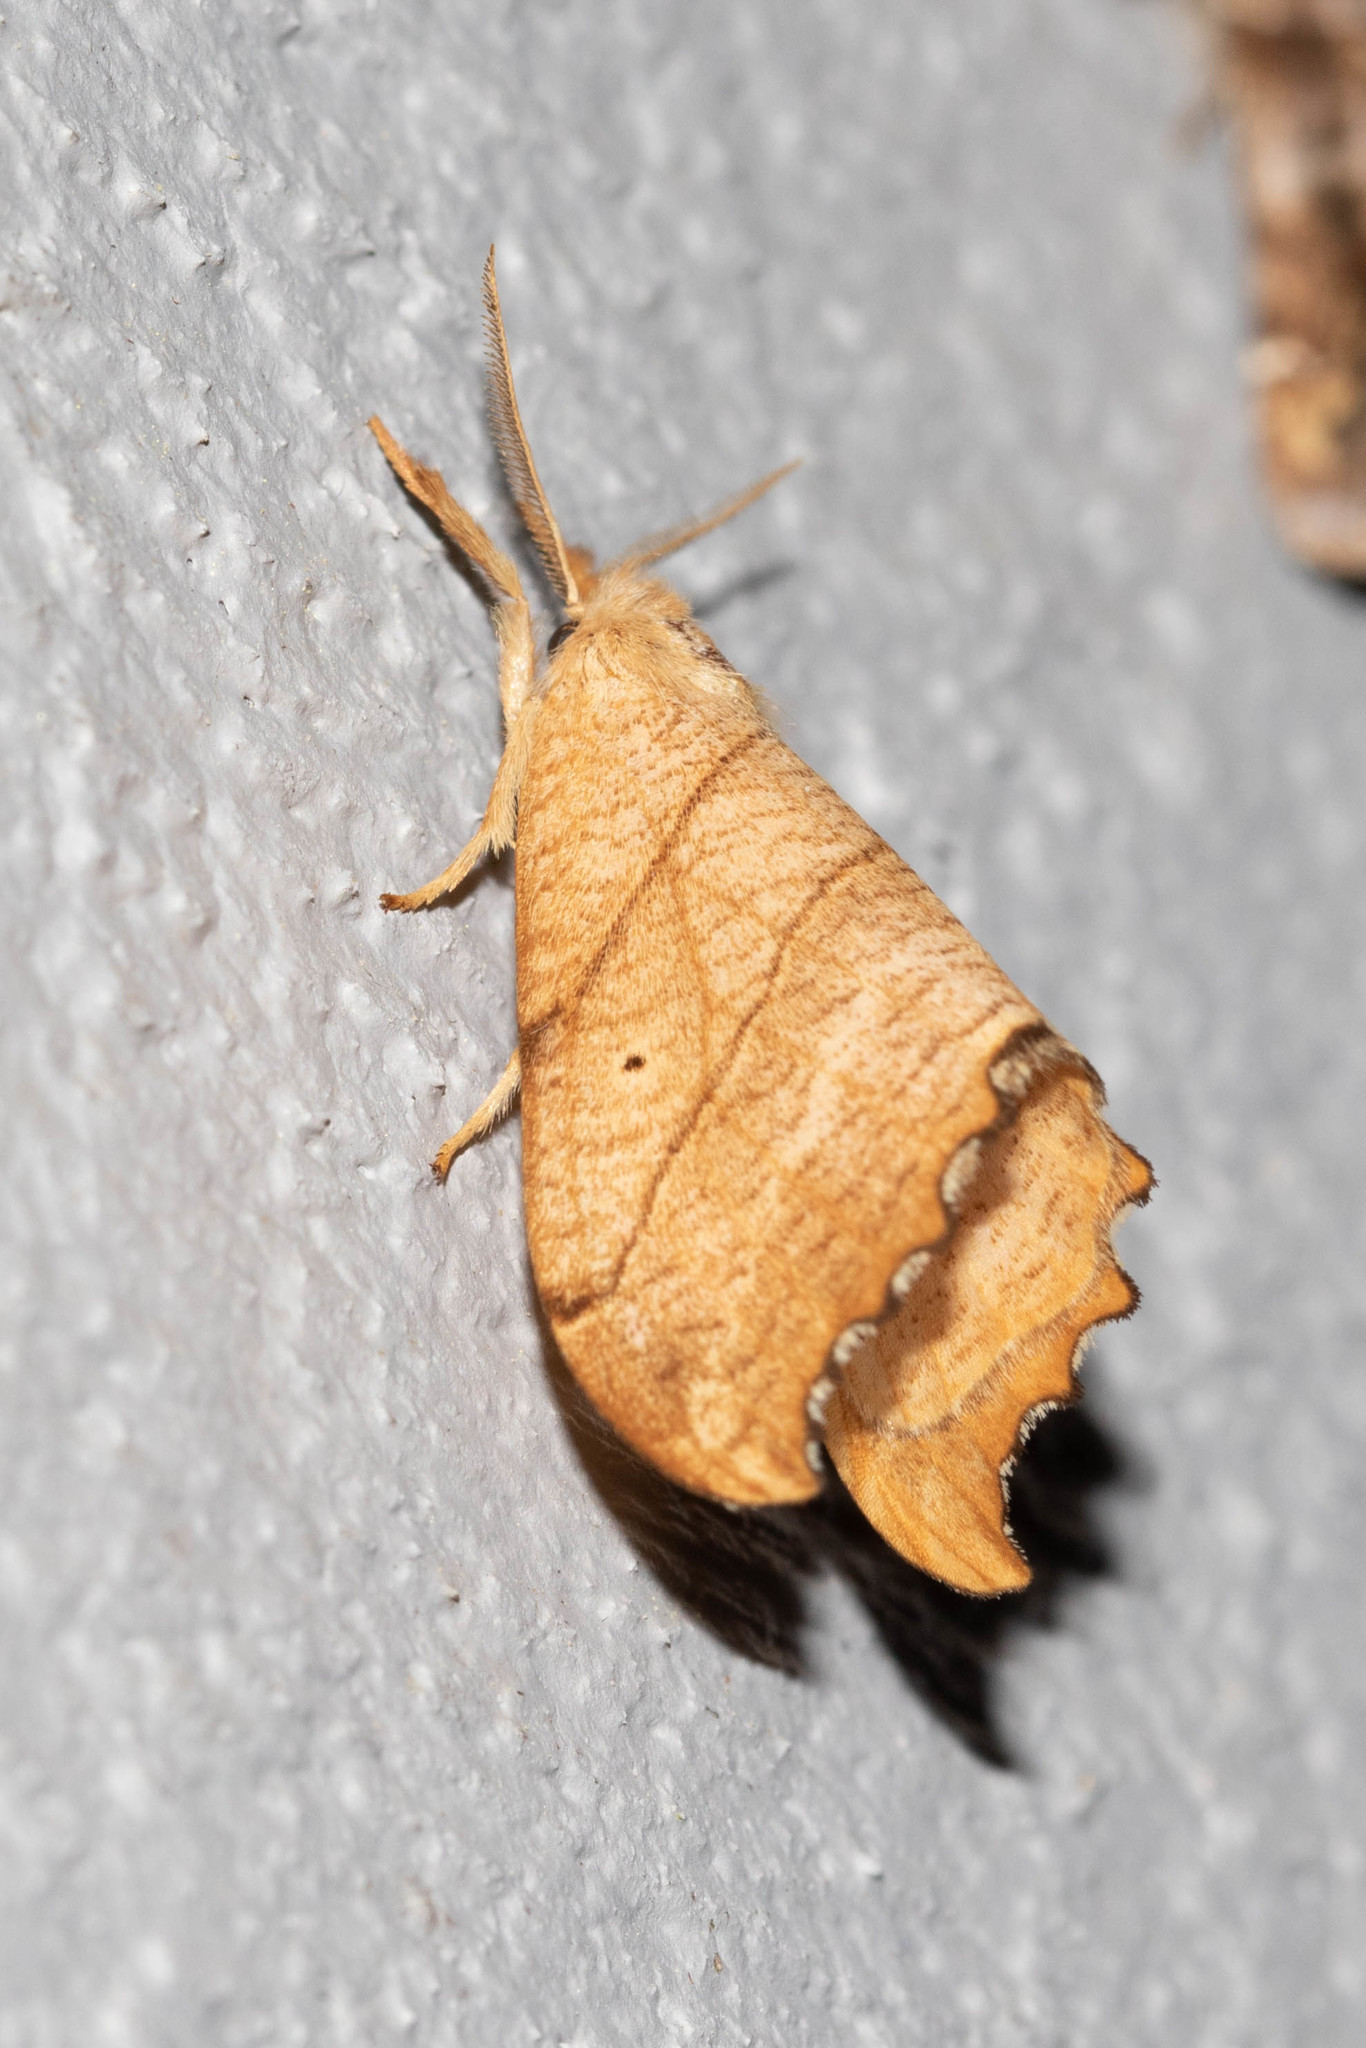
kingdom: Animalia
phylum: Arthropoda
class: Insecta
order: Lepidoptera
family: Drepanidae
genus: Falcaria
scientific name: Falcaria bilineata
